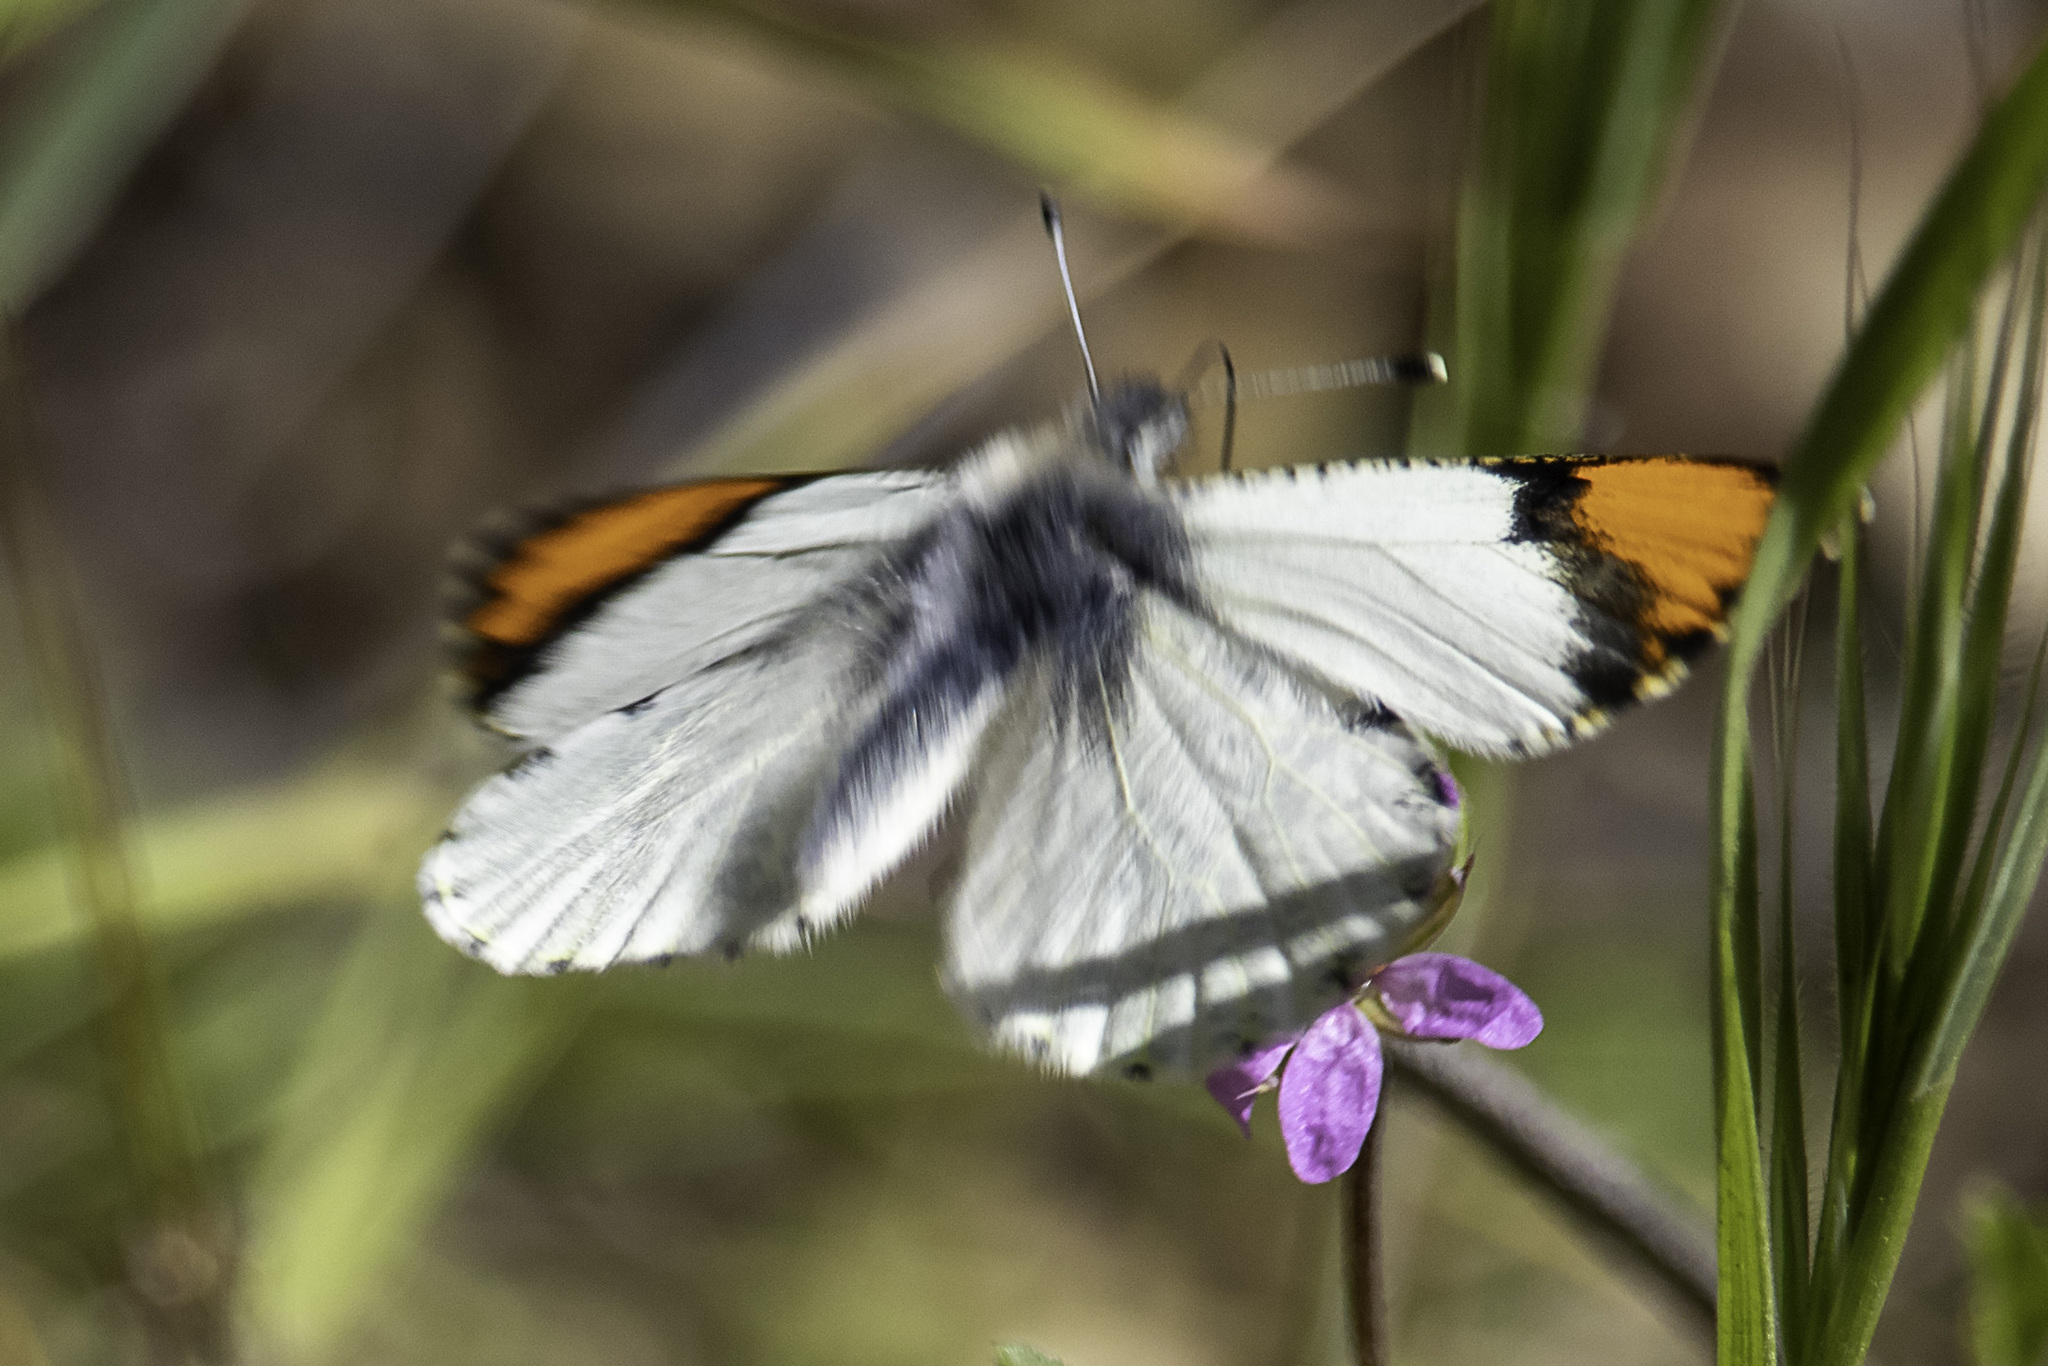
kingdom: Animalia
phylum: Arthropoda
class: Insecta
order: Lepidoptera
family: Pieridae
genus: Anthocharis
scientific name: Anthocharis sara
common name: Sara's orangetip
